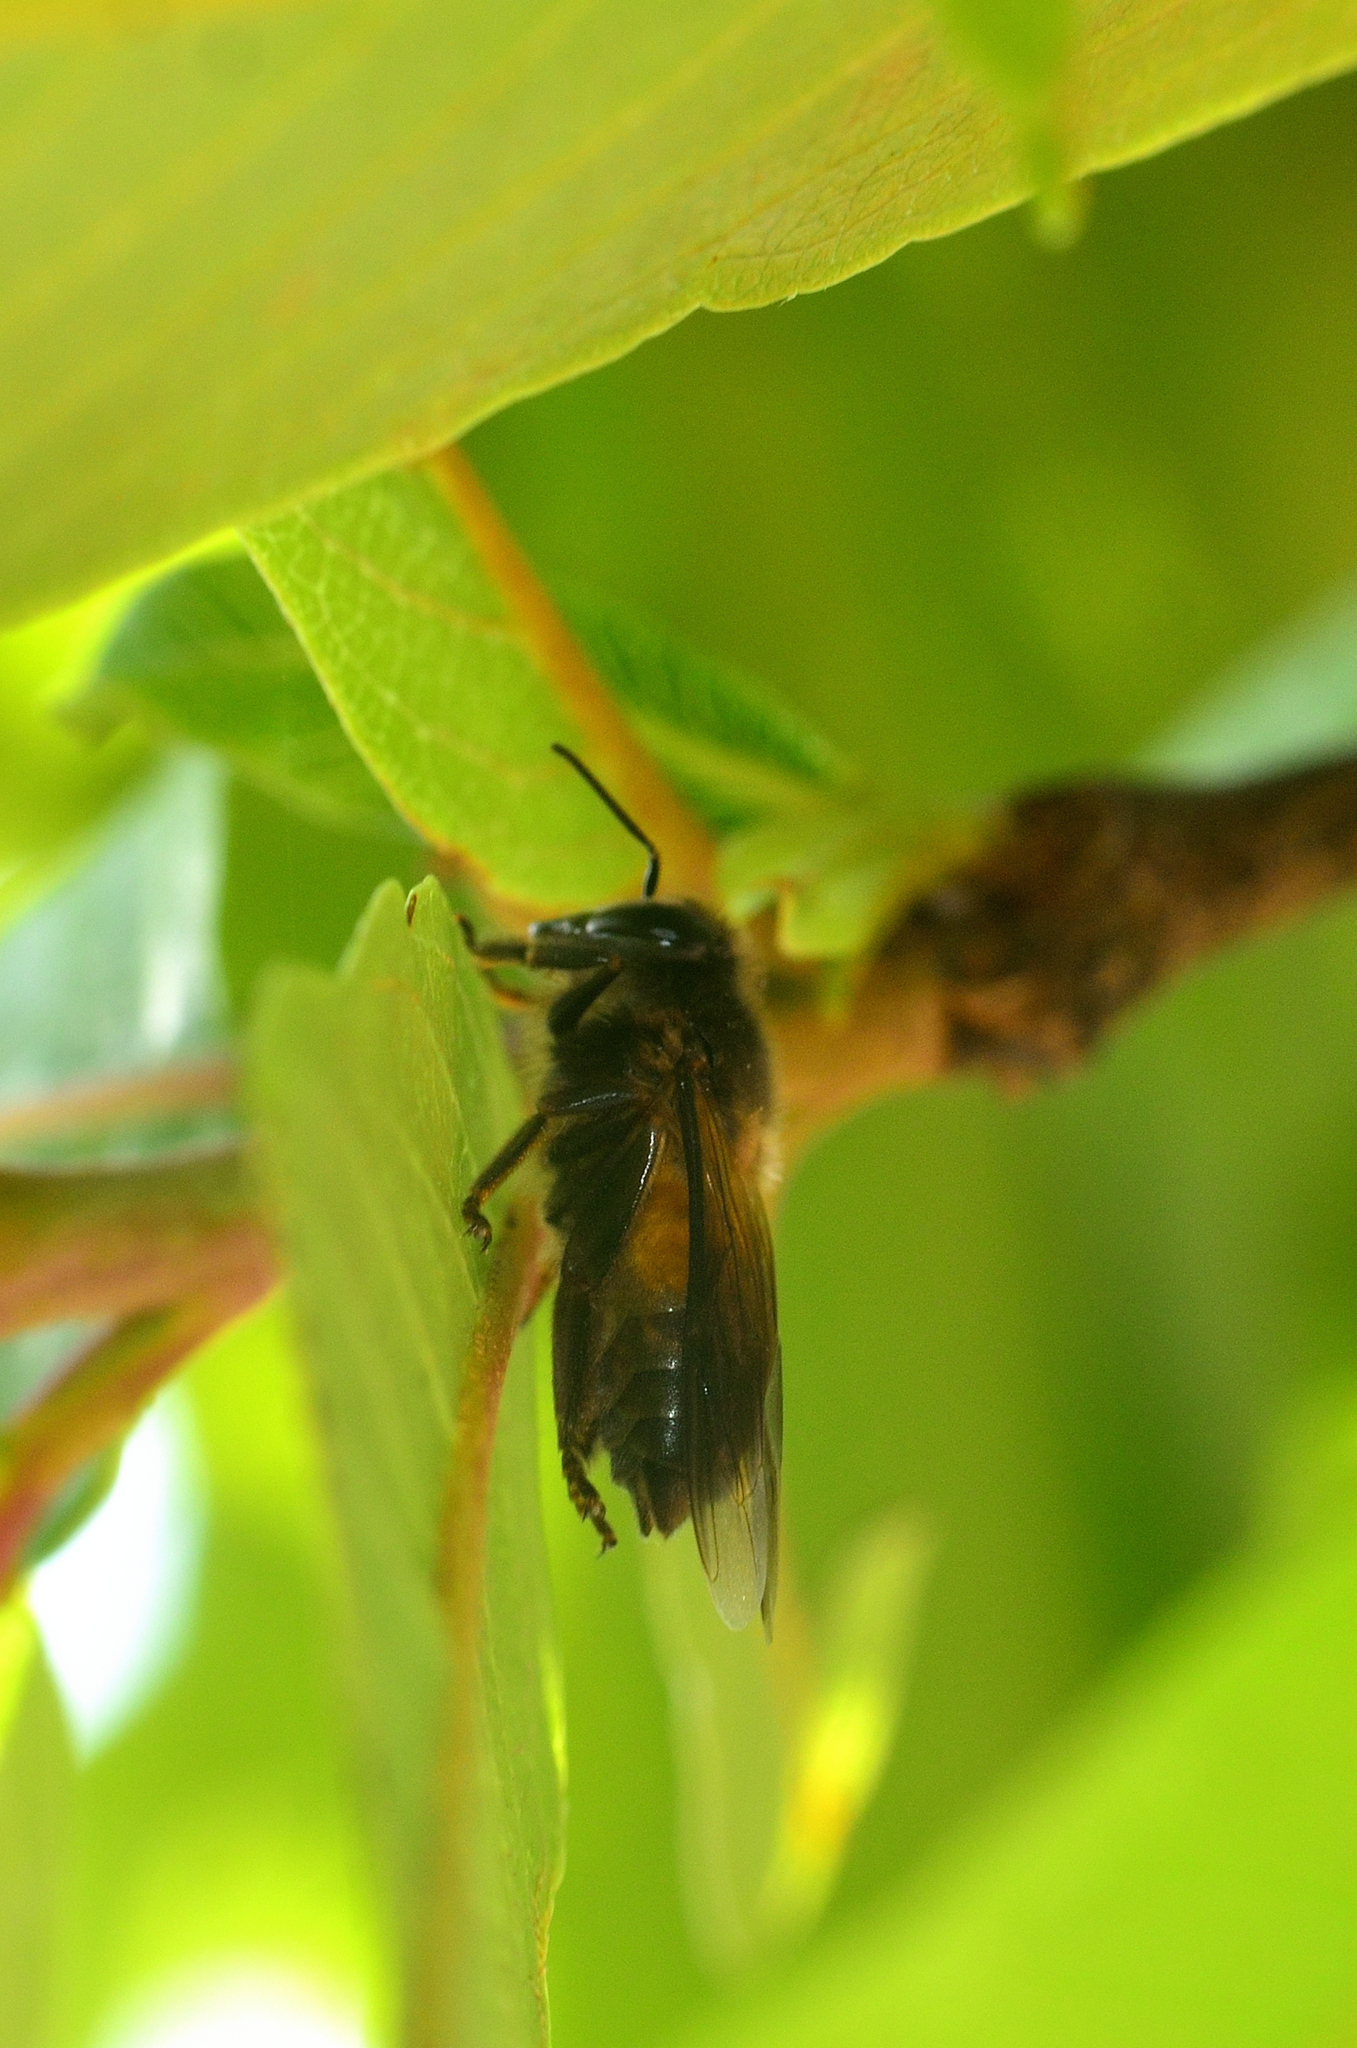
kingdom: Animalia
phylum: Arthropoda
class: Insecta
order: Hymenoptera
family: Apidae
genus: Apis
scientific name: Apis dorsata
